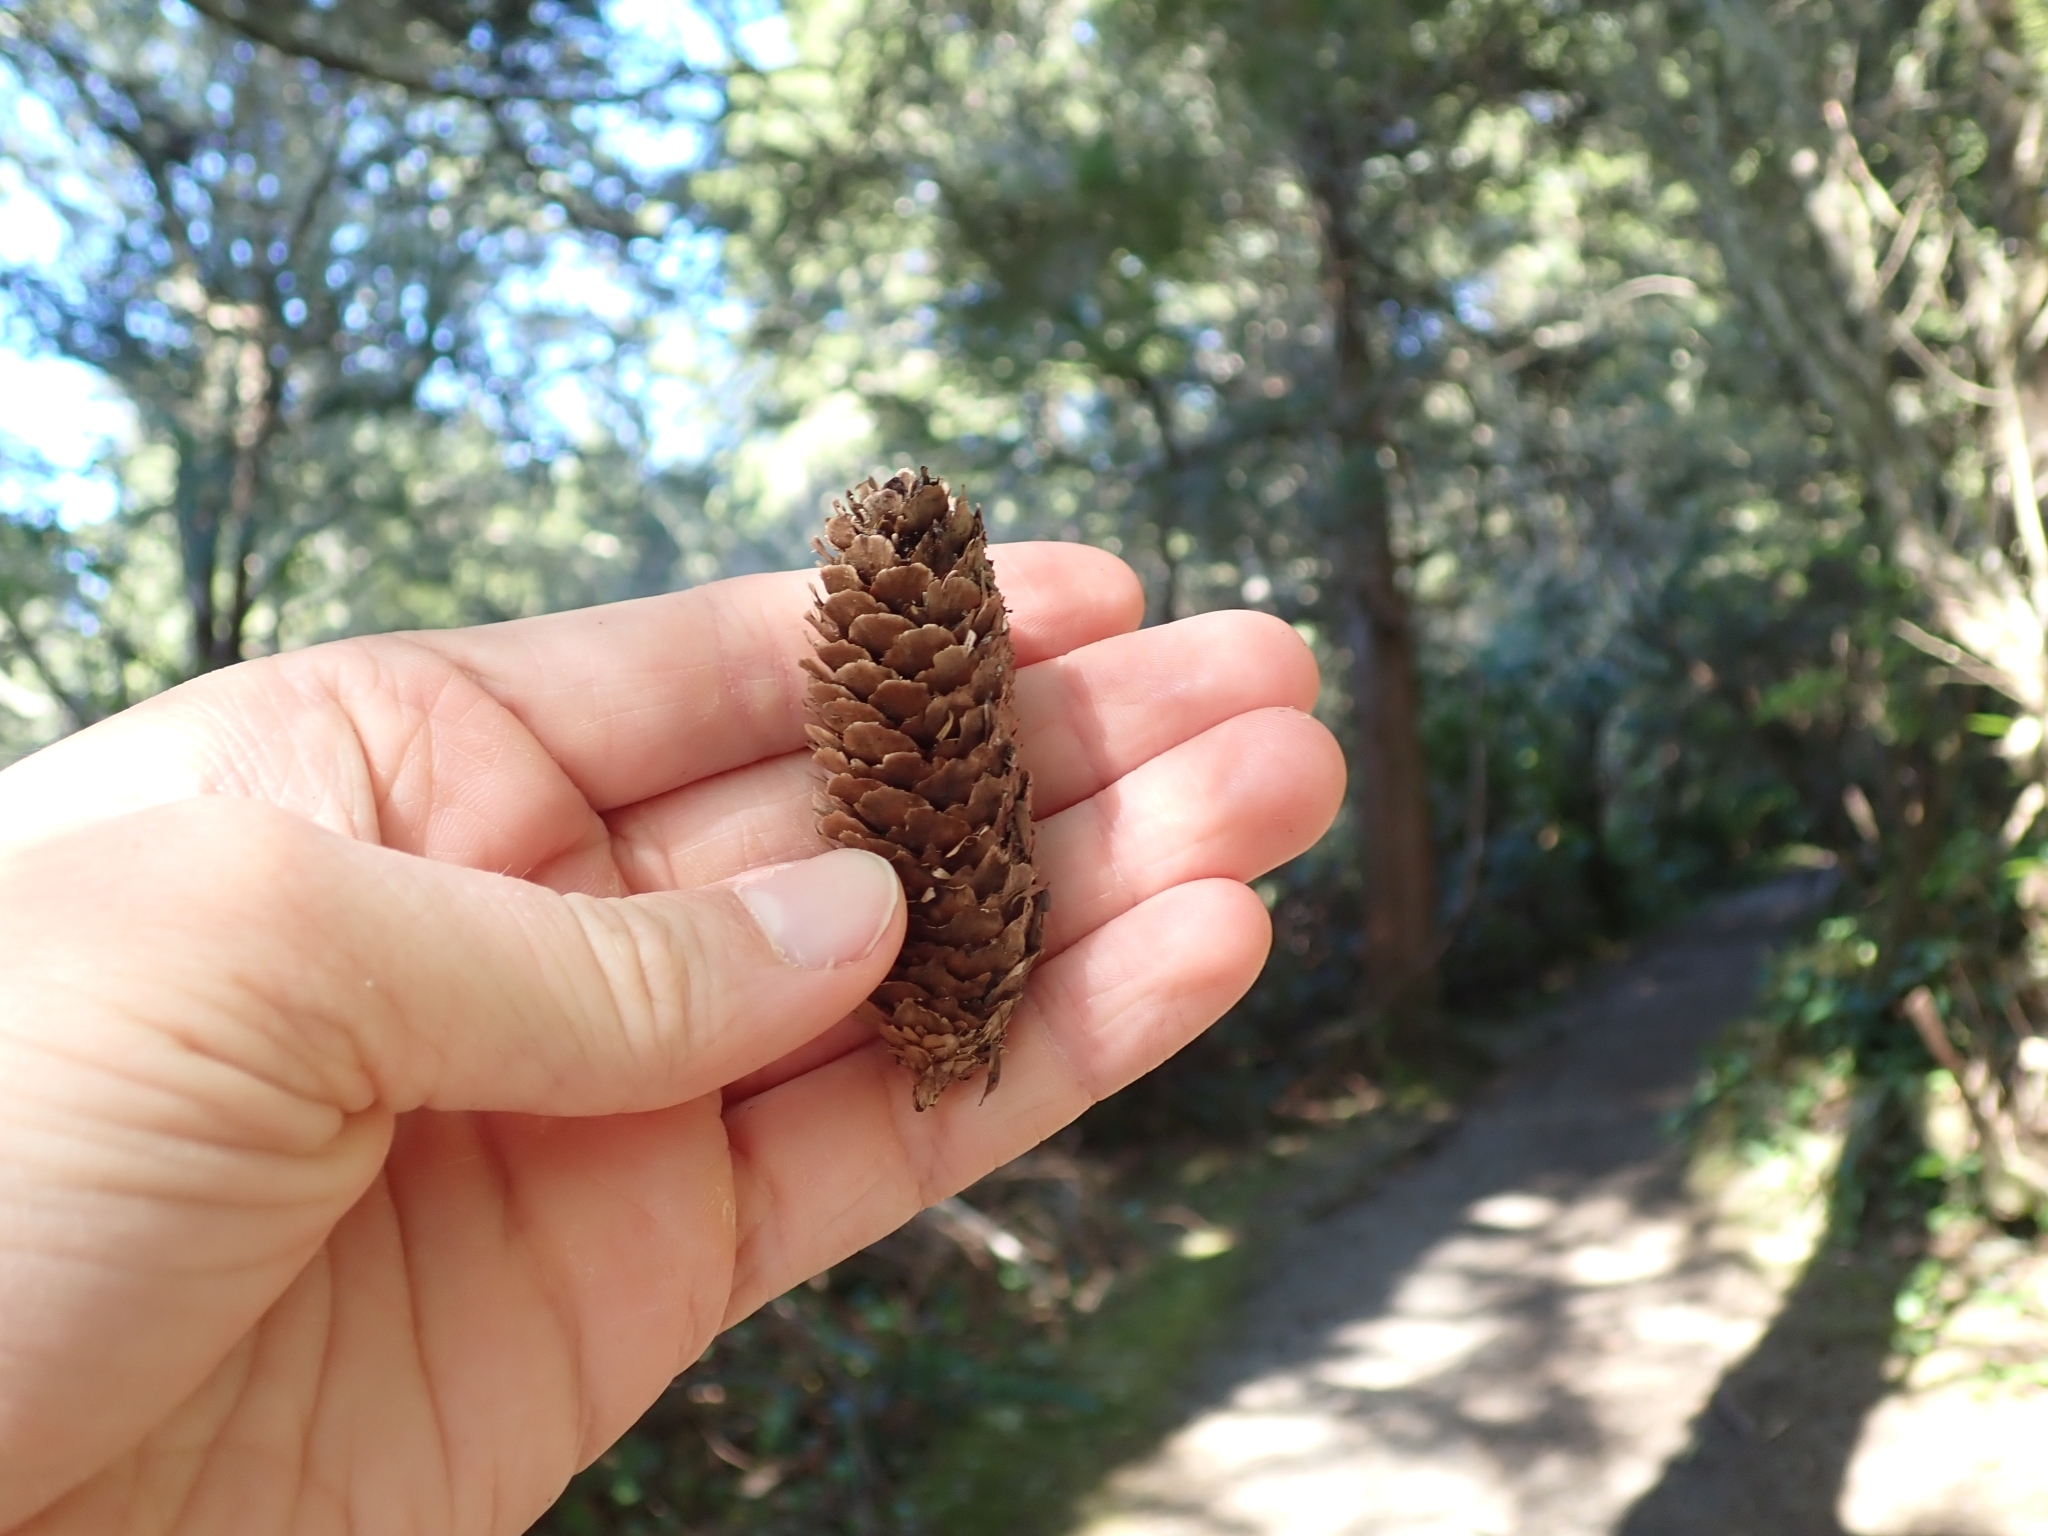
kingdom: Plantae
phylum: Tracheophyta
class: Pinopsida
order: Pinales
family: Pinaceae
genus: Picea
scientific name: Picea sitchensis
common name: Sitka spruce
